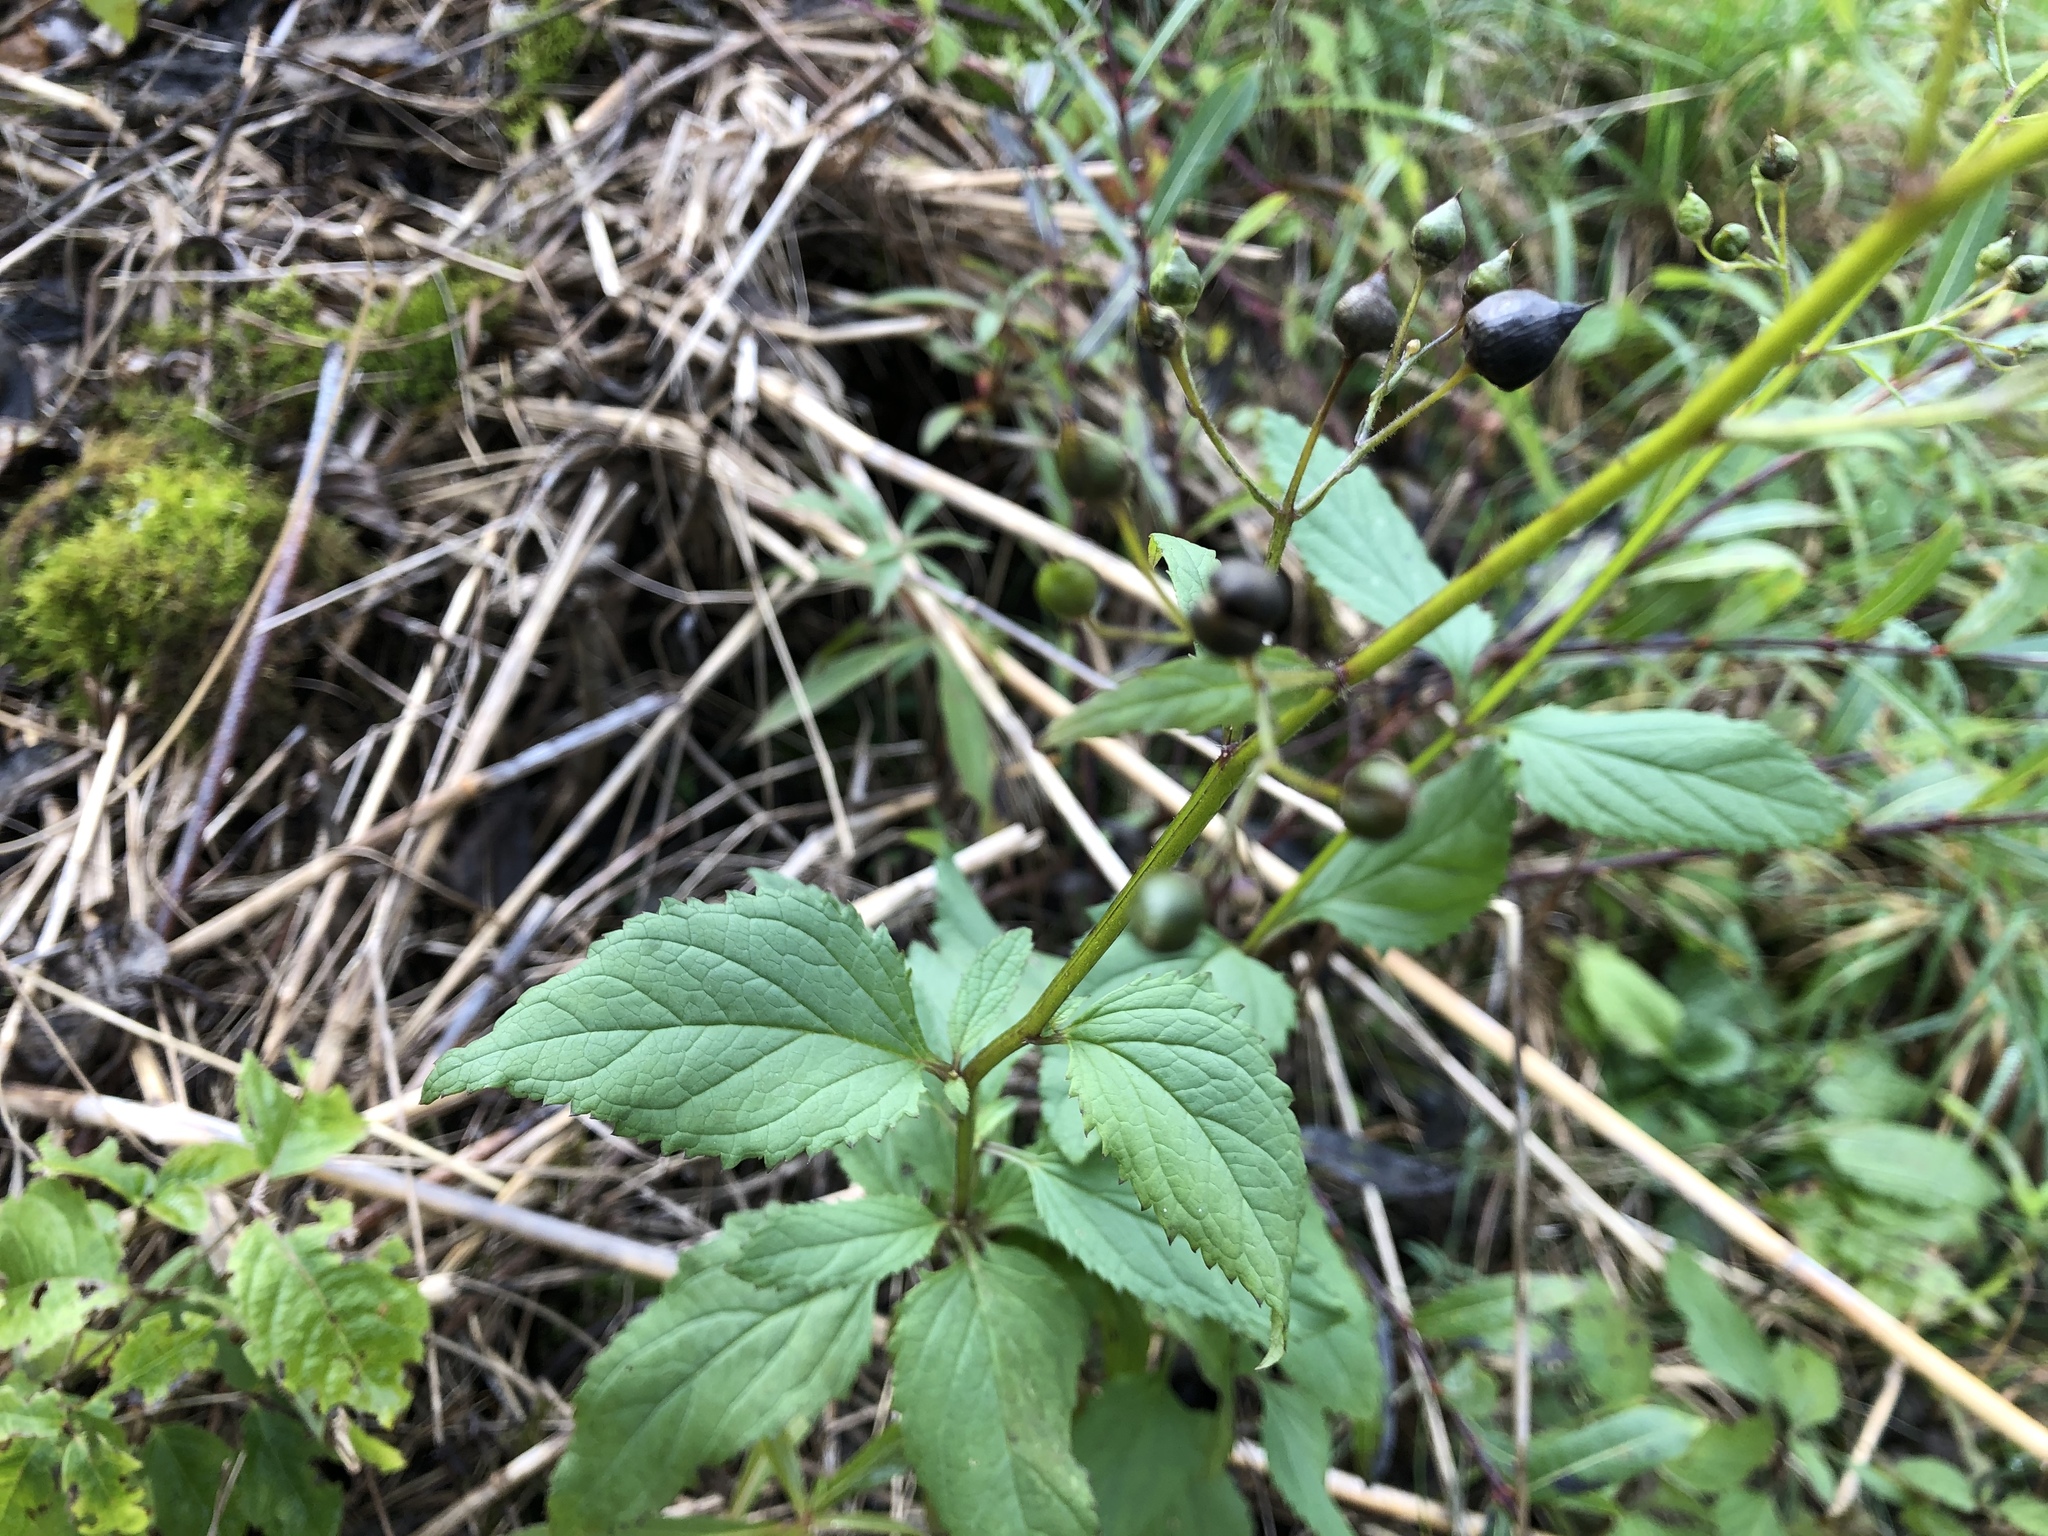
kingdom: Plantae
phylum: Tracheophyta
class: Magnoliopsida
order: Lamiales
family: Scrophulariaceae
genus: Scrophularia
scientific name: Scrophularia nodosa
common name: Common figwort
